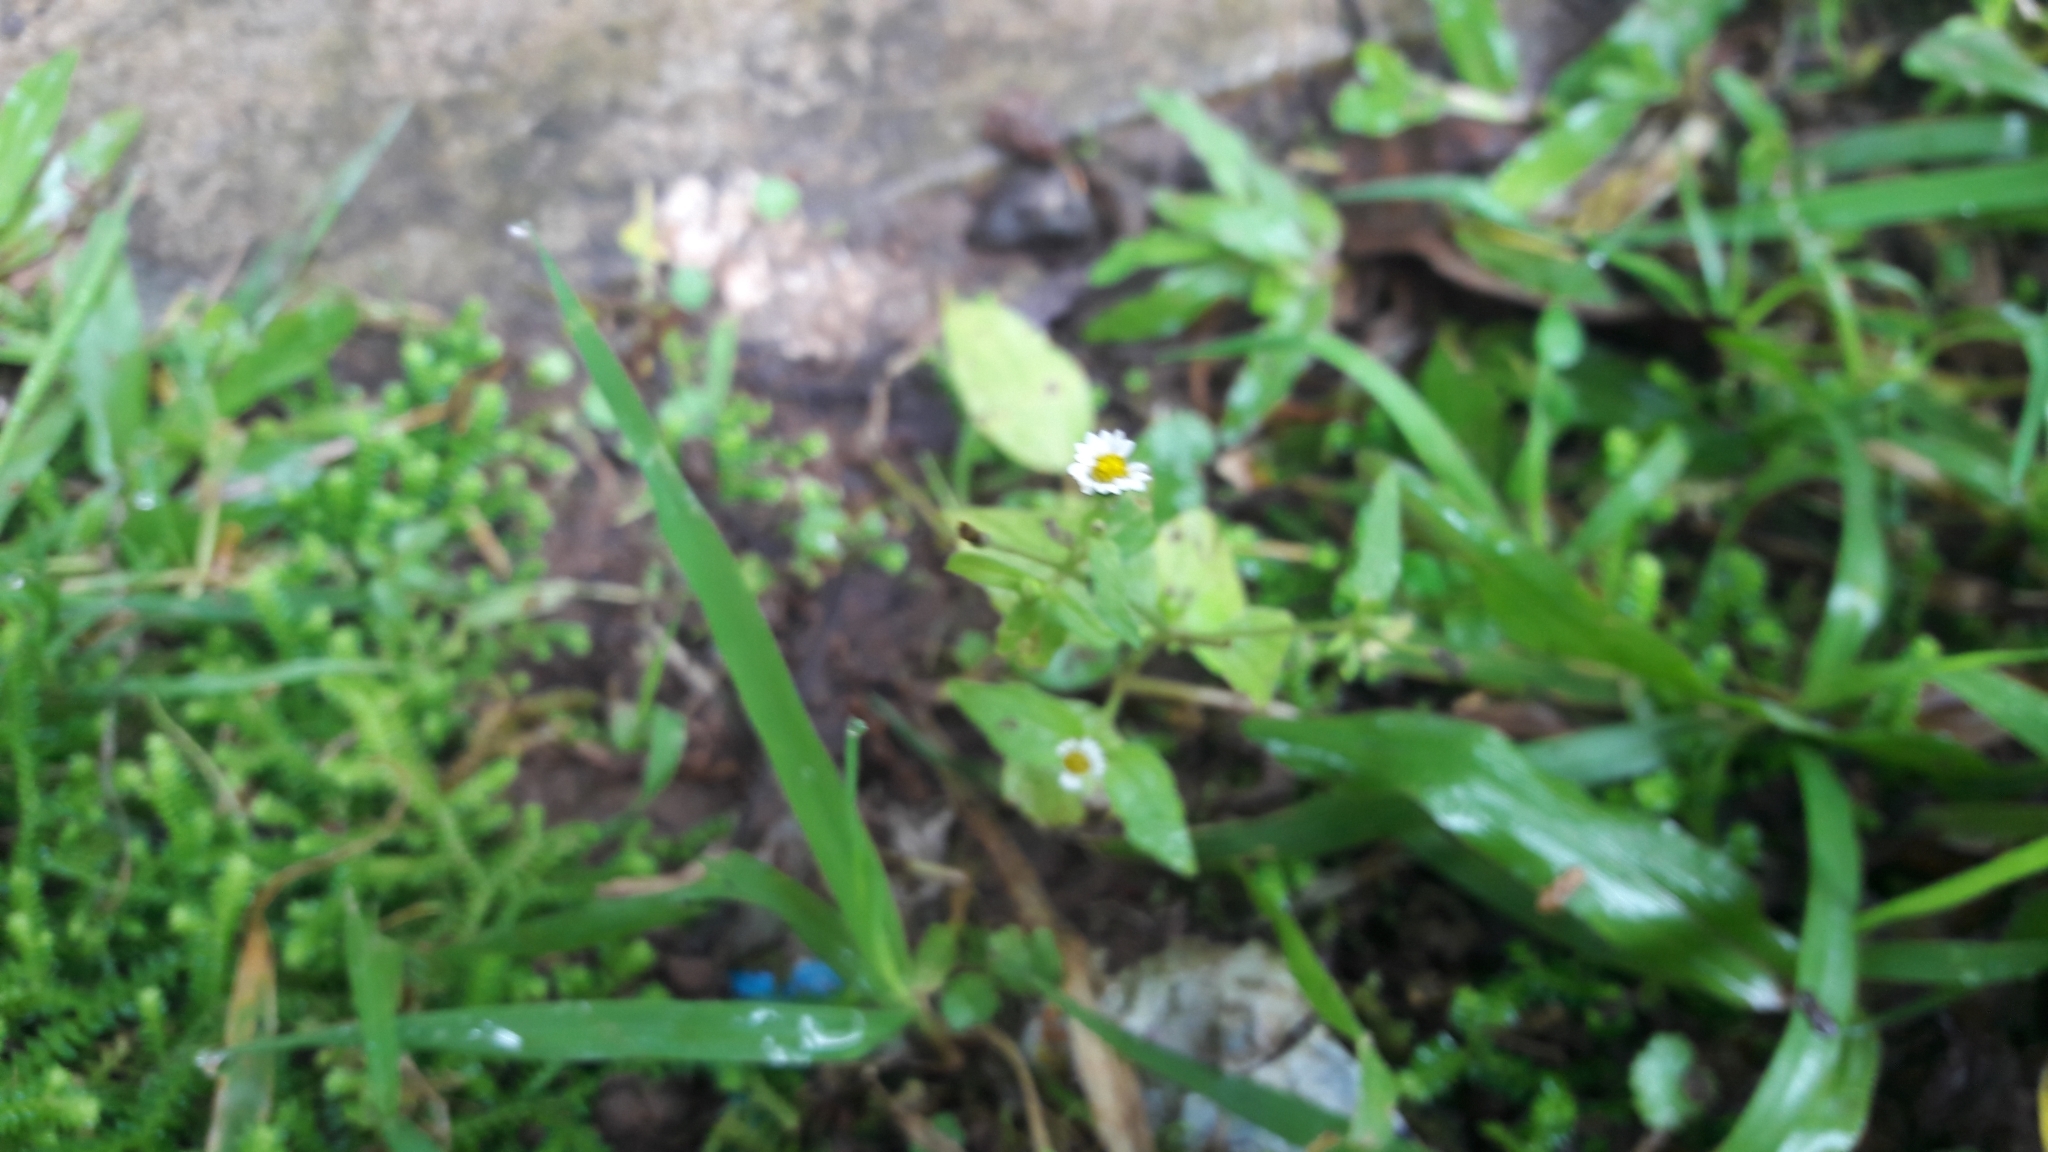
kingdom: Plantae
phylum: Tracheophyta
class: Magnoliopsida
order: Asterales
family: Asteraceae
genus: Galinsoga
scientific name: Galinsoga quadriradiata
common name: Shaggy soldier
